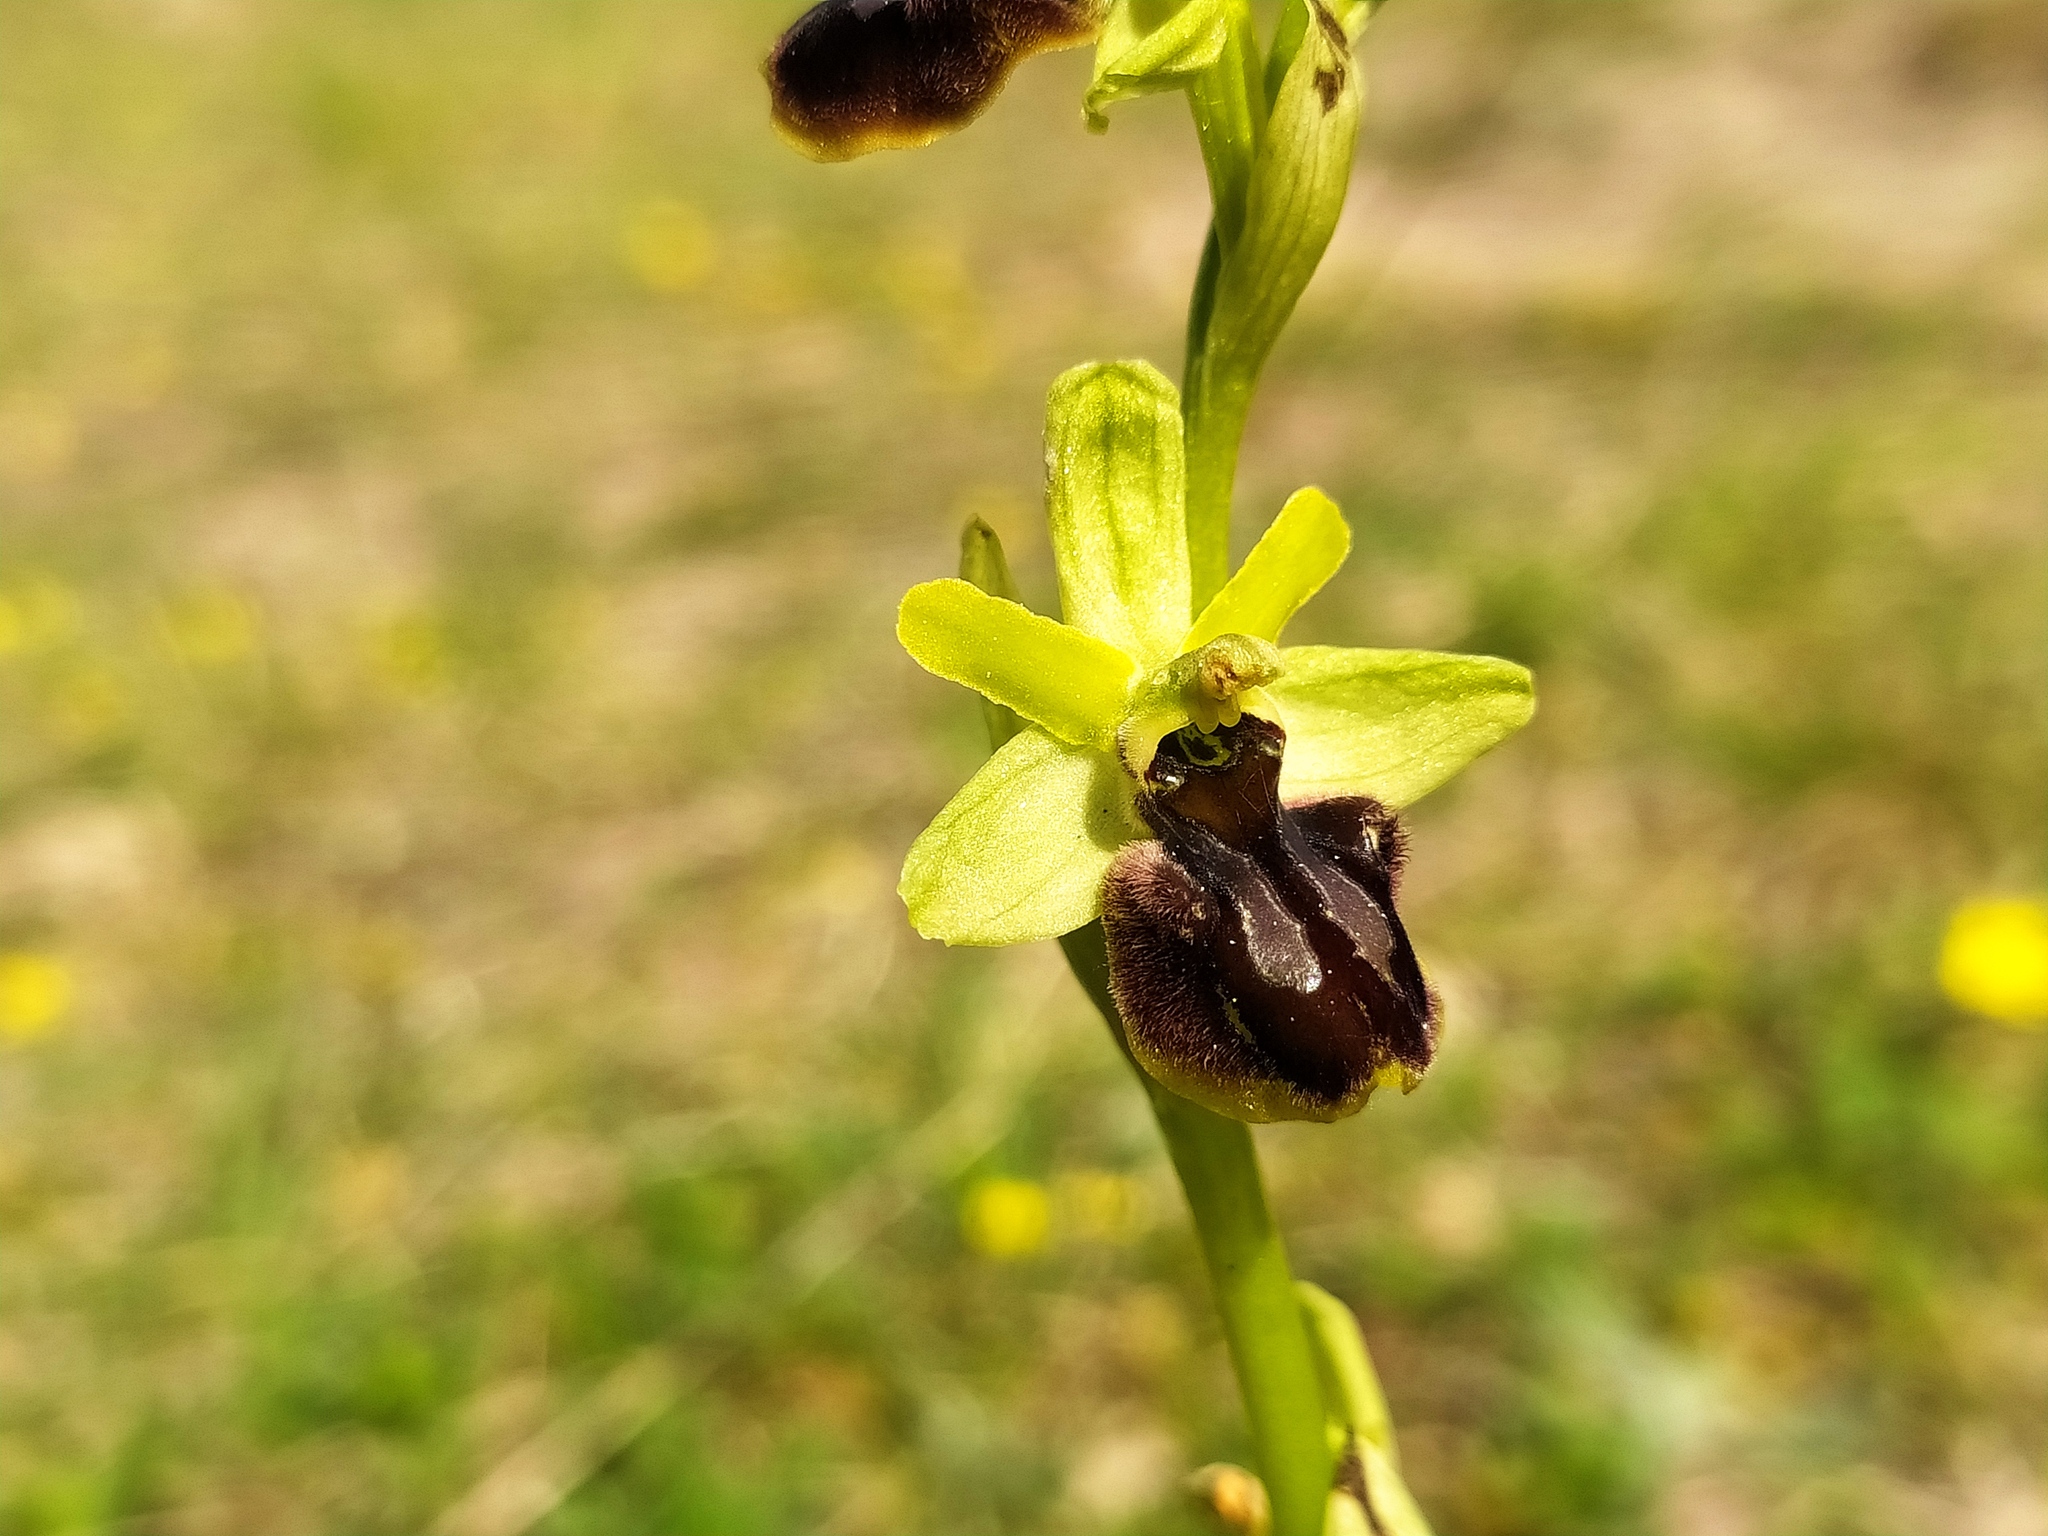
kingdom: Plantae
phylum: Tracheophyta
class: Liliopsida
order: Asparagales
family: Orchidaceae
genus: Ophrys
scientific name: Ophrys sphegodes
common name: Early spider-orchid
